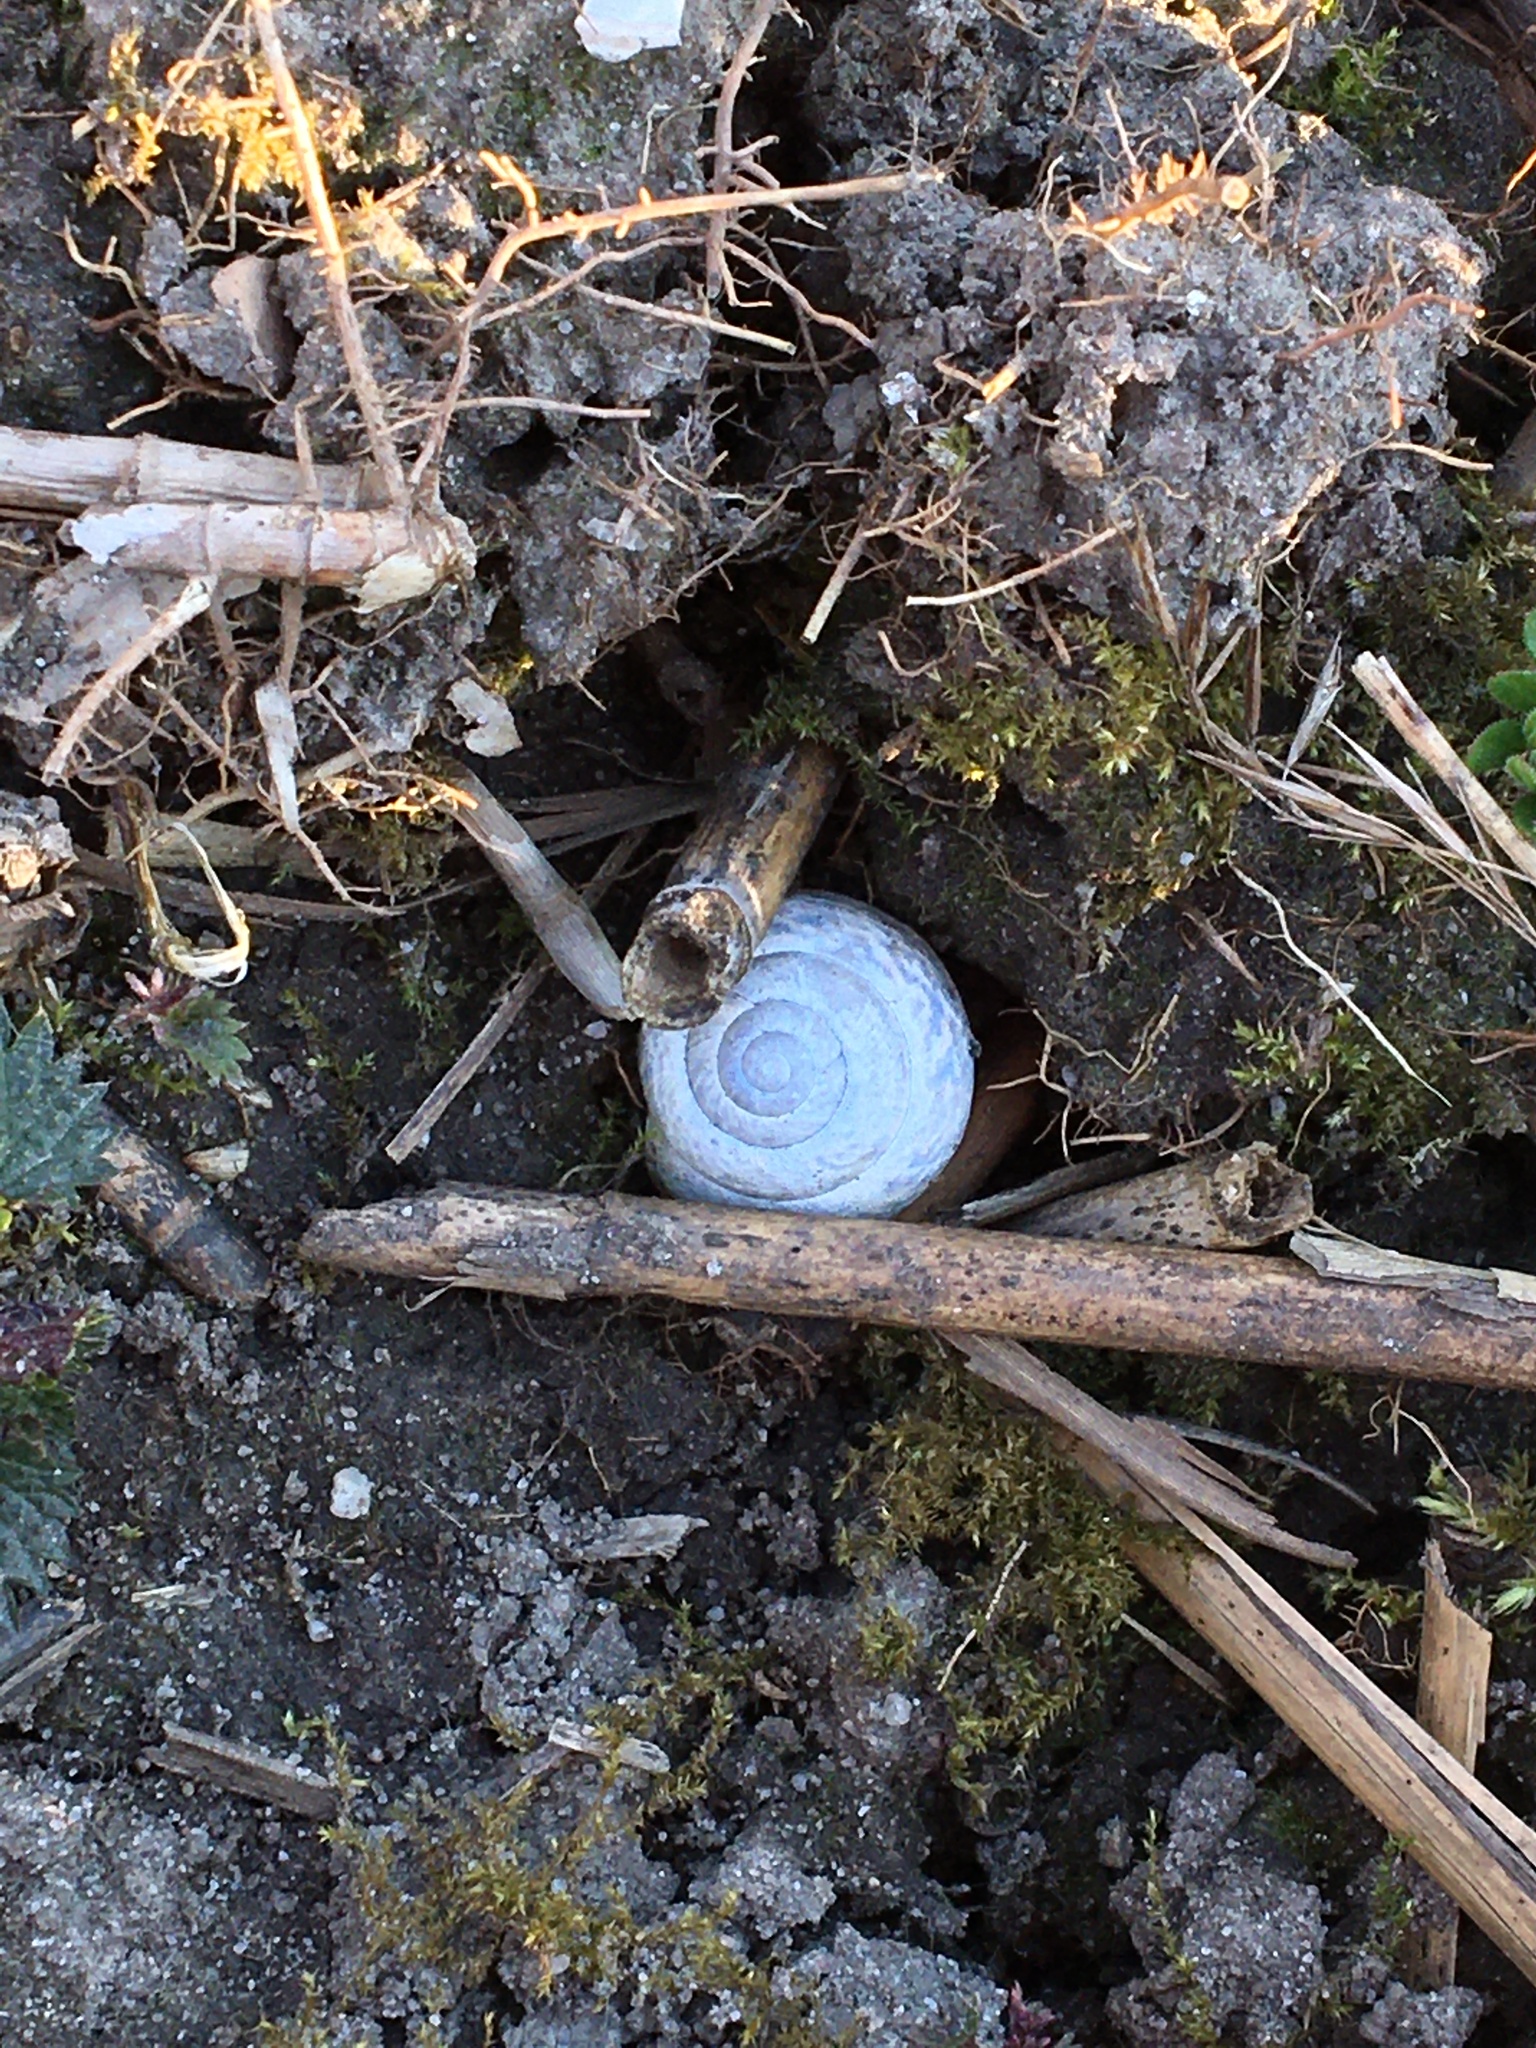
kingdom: Animalia
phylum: Mollusca
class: Gastropoda
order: Stylommatophora
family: Helicidae
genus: Arianta
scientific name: Arianta arbustorum
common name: Copse snail
